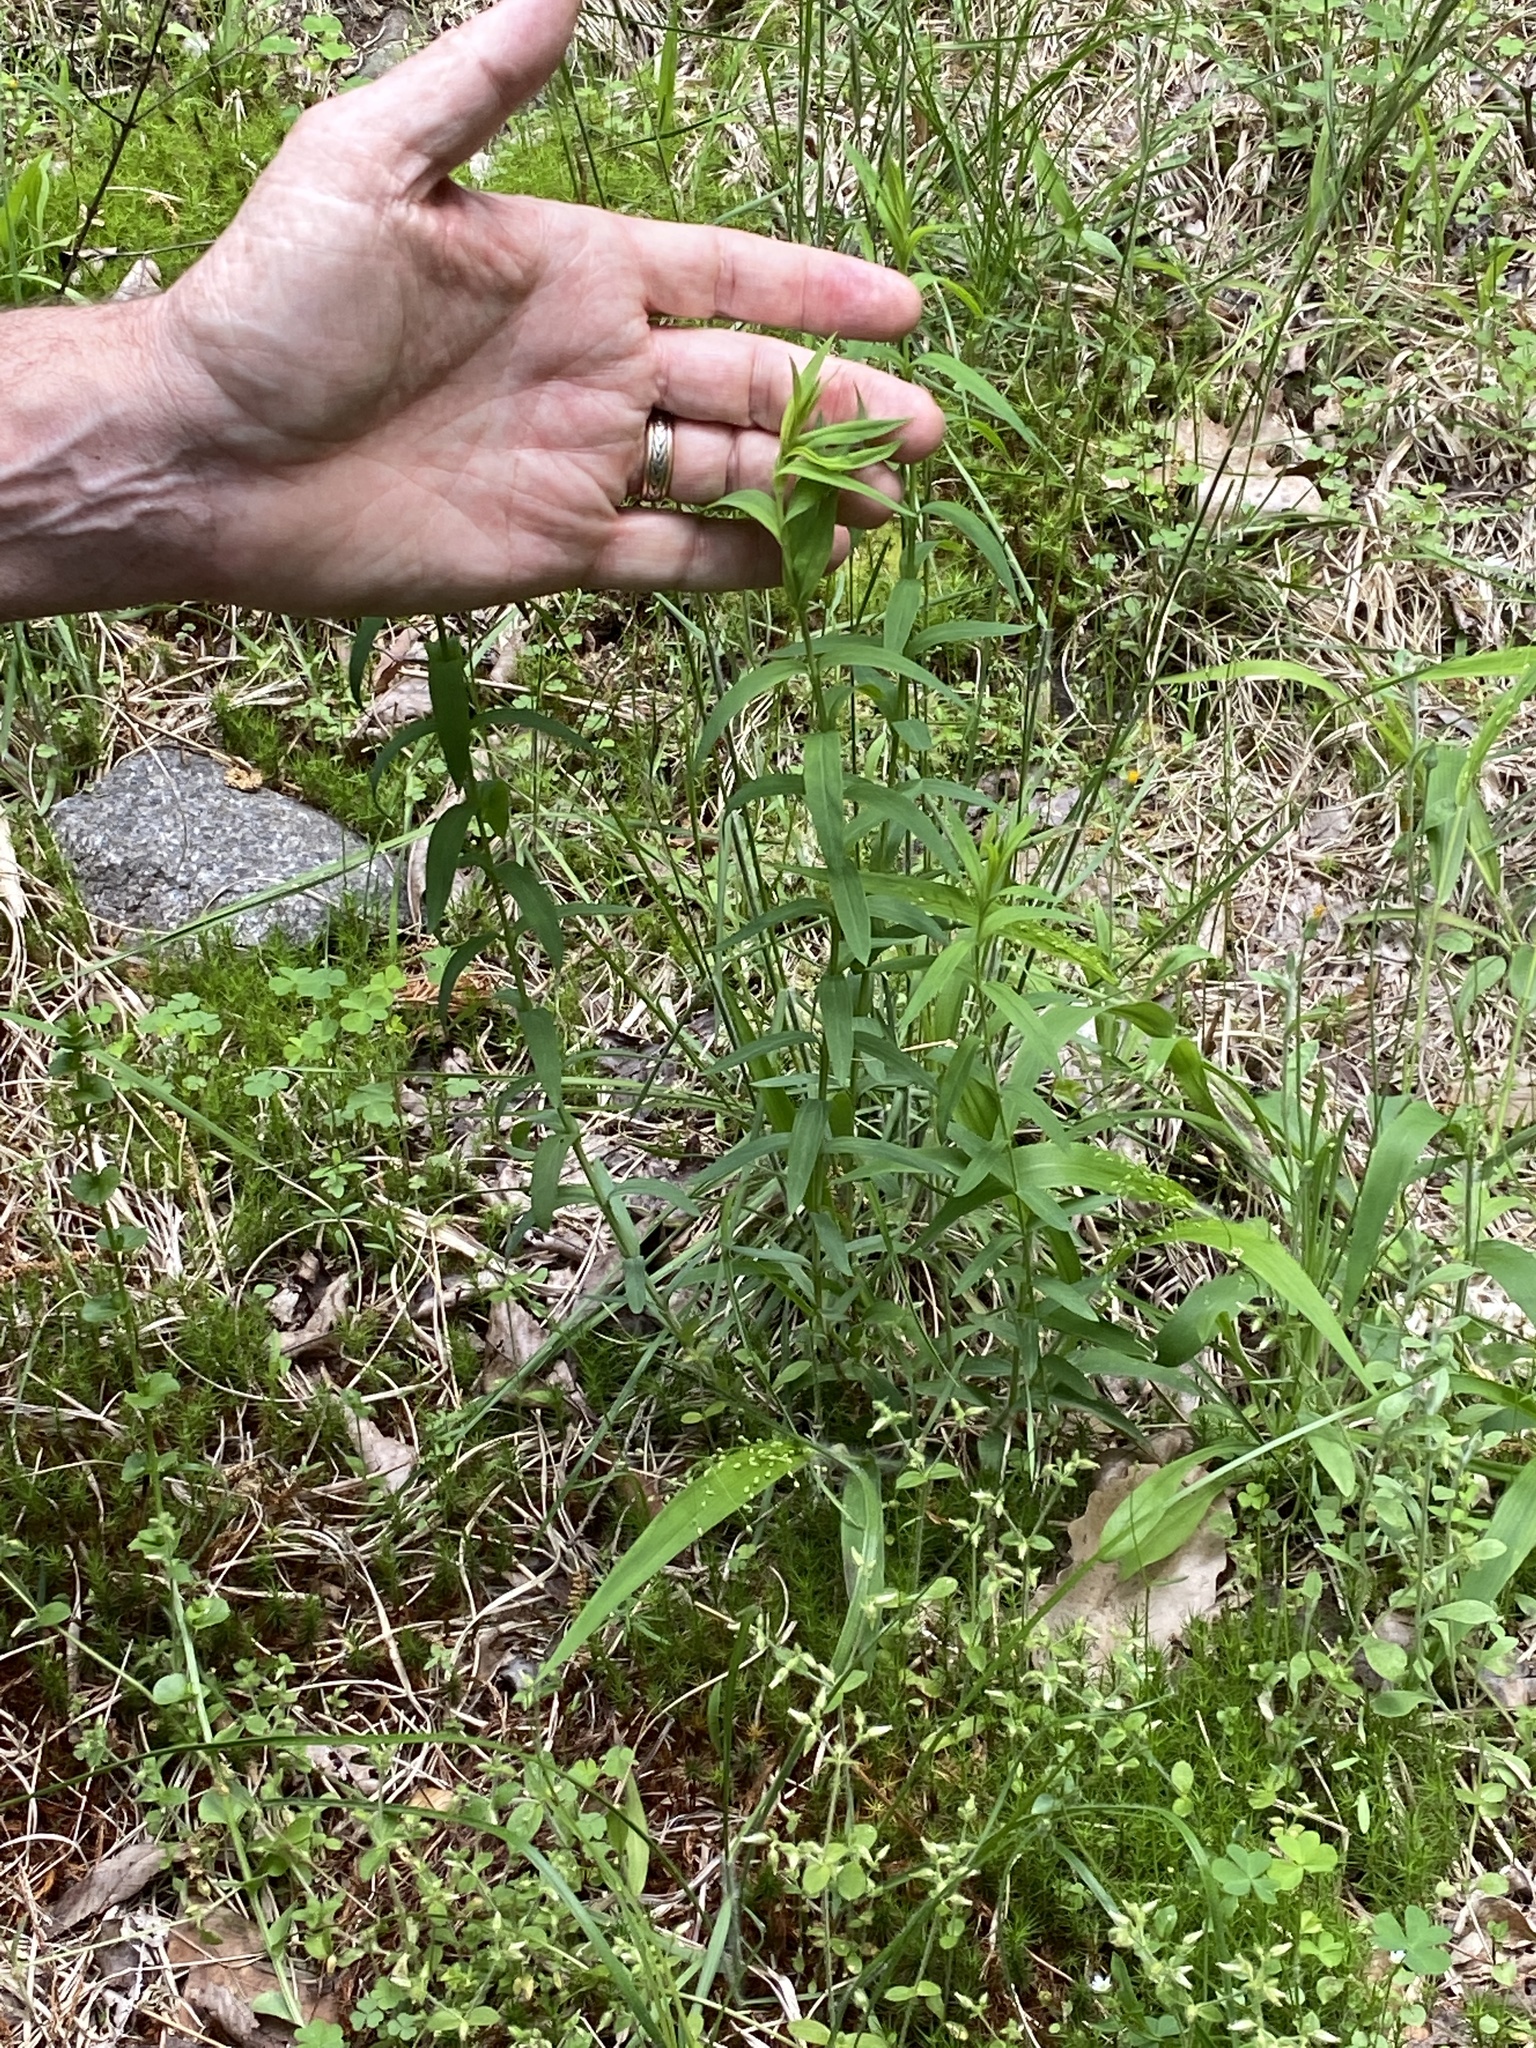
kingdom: Plantae
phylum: Tracheophyta
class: Magnoliopsida
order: Malpighiales
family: Hypericaceae
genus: Hypericum
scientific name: Hypericum radfordiorum
